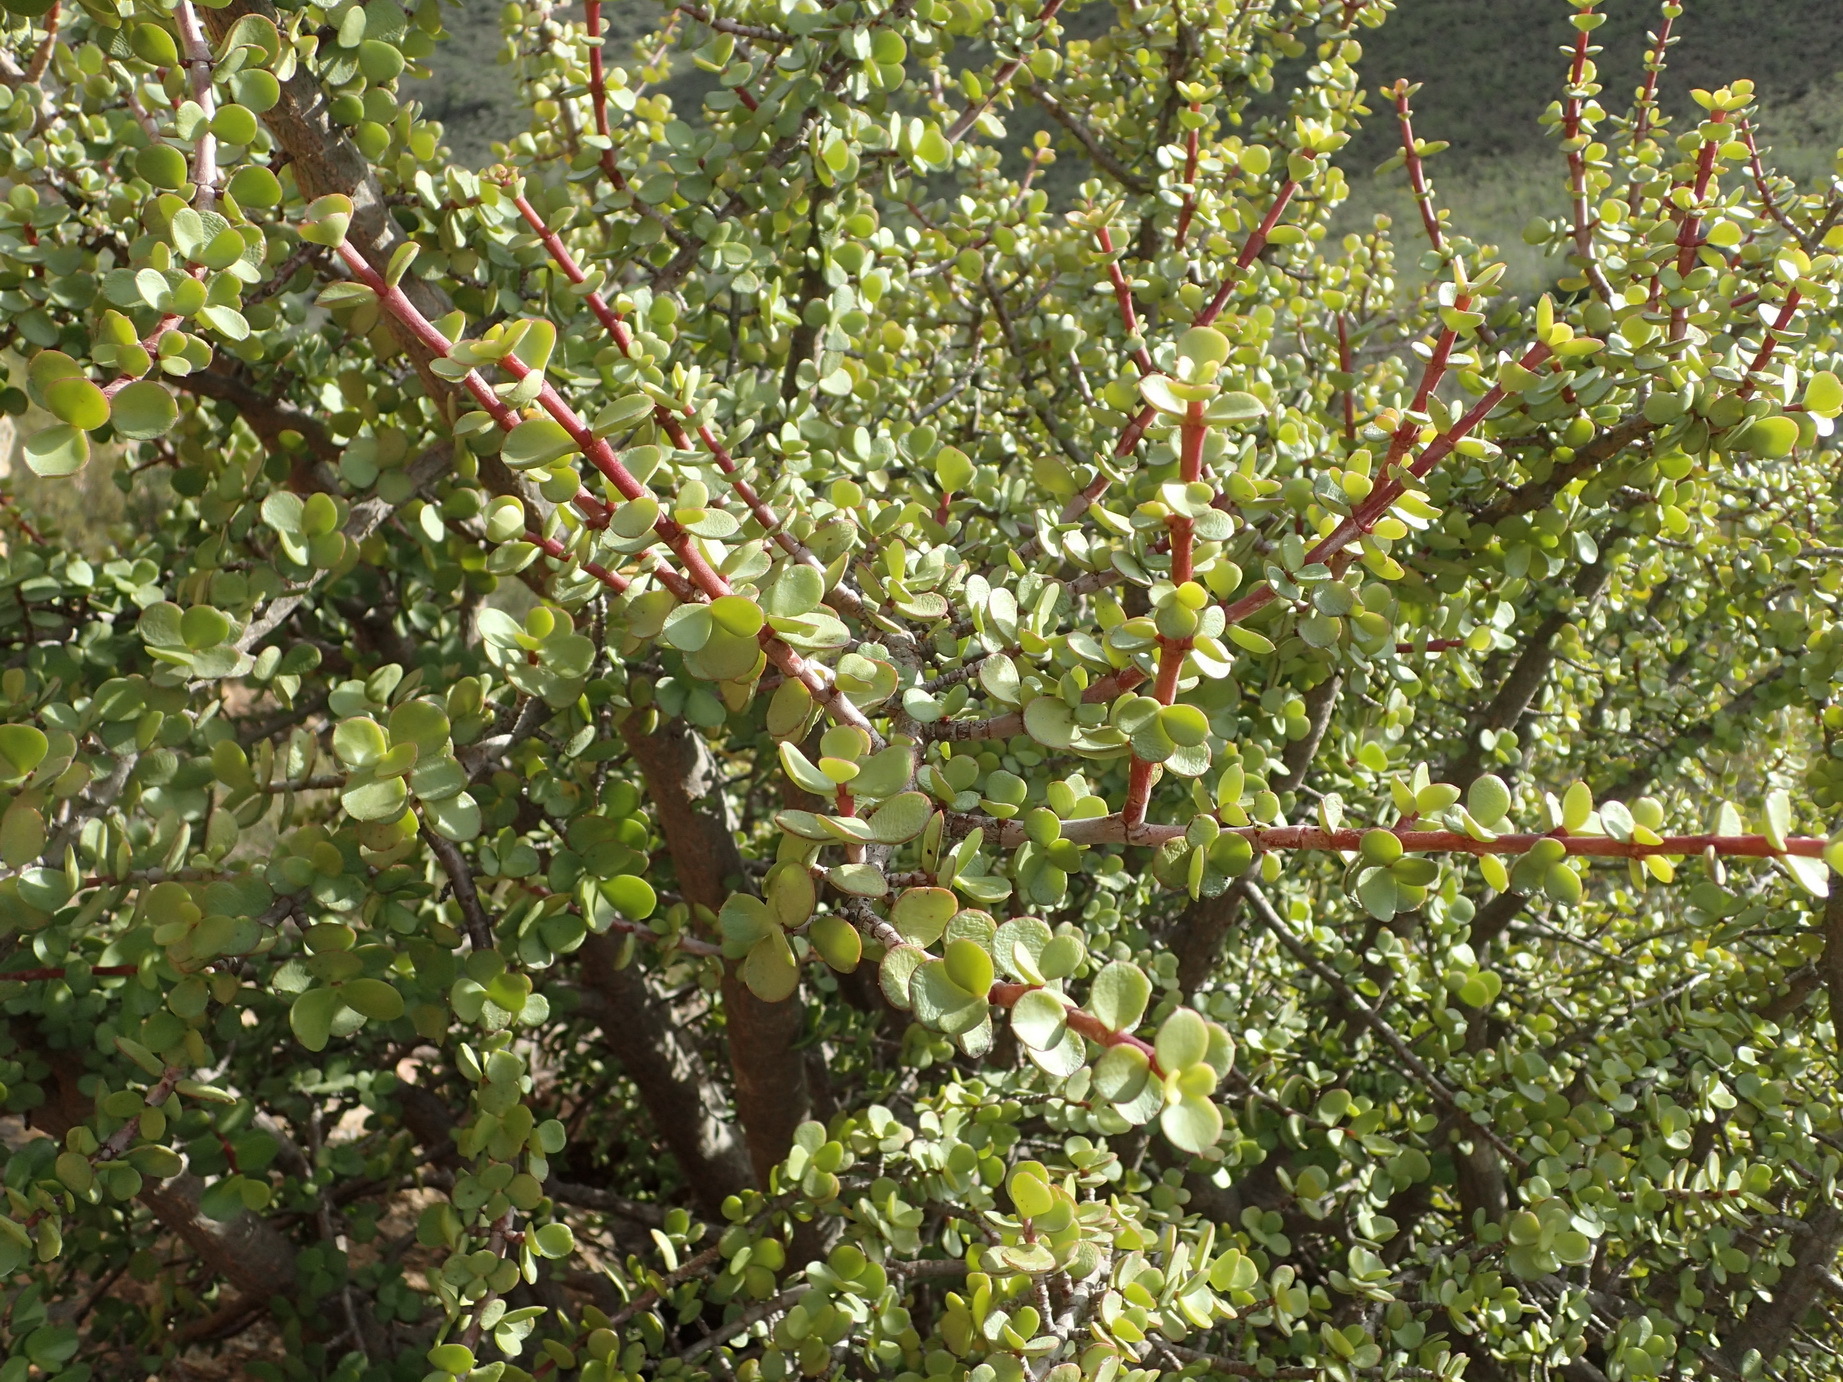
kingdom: Plantae
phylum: Tracheophyta
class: Magnoliopsida
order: Caryophyllales
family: Didiereaceae
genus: Portulacaria
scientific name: Portulacaria afra
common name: Elephant-bush
